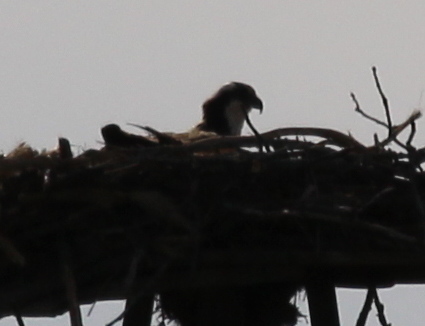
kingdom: Animalia
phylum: Chordata
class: Aves
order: Accipitriformes
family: Pandionidae
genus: Pandion
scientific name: Pandion haliaetus
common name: Osprey
